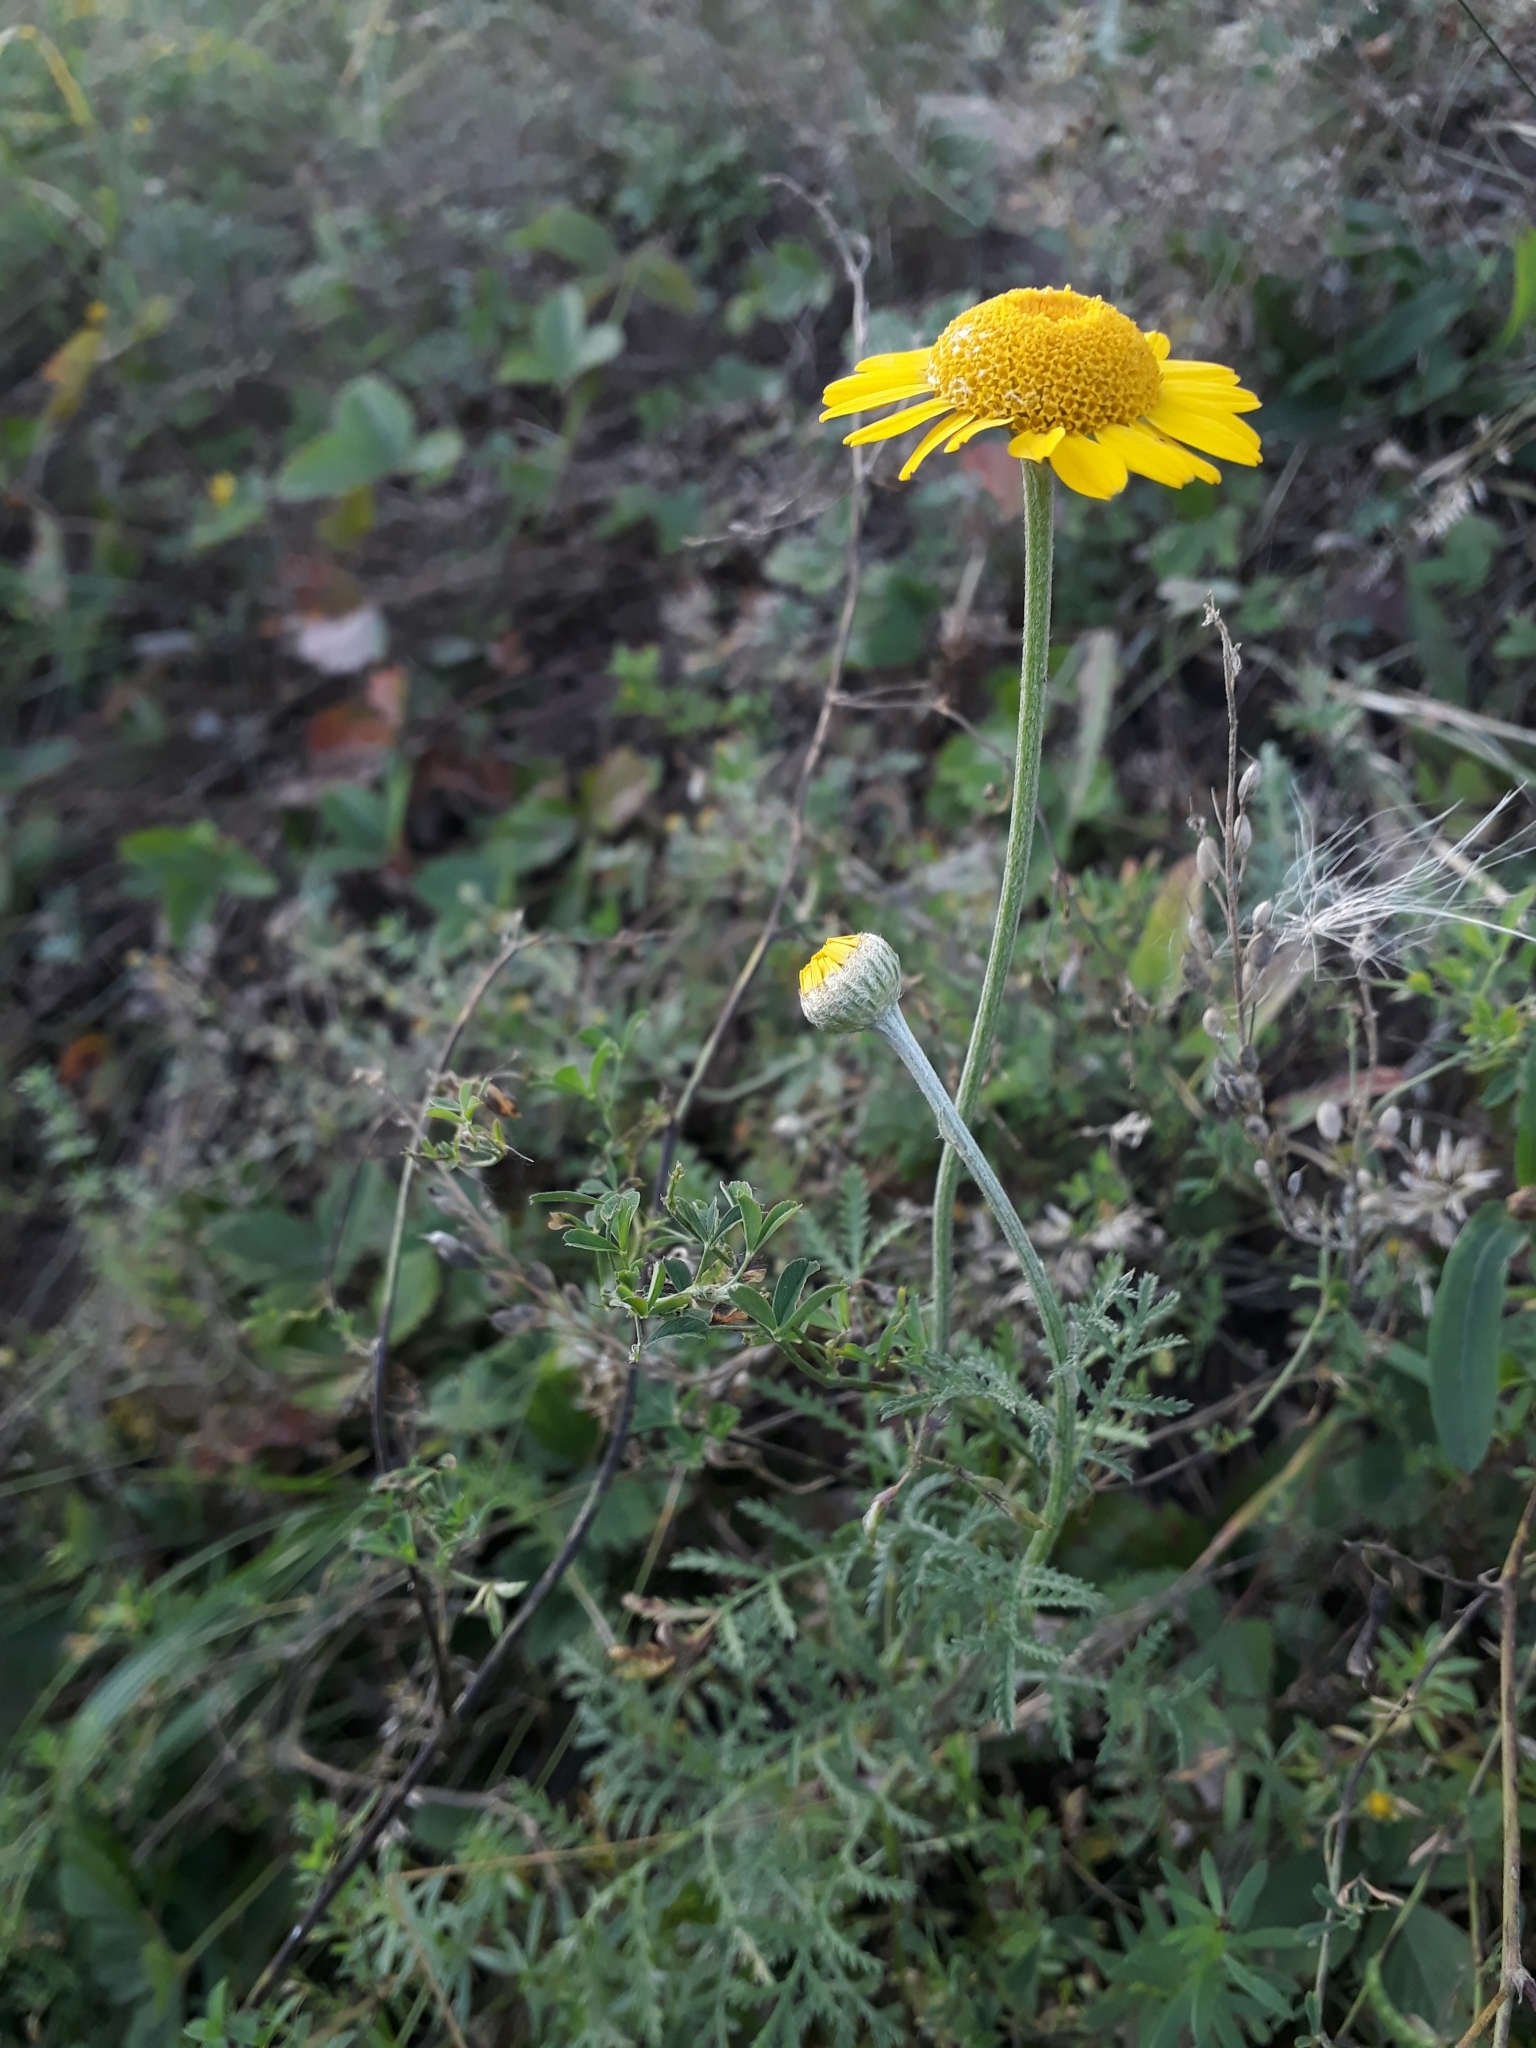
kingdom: Plantae
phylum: Tracheophyta
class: Magnoliopsida
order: Asterales
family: Asteraceae
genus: Cota
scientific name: Cota tinctoria
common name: Golden chamomile
